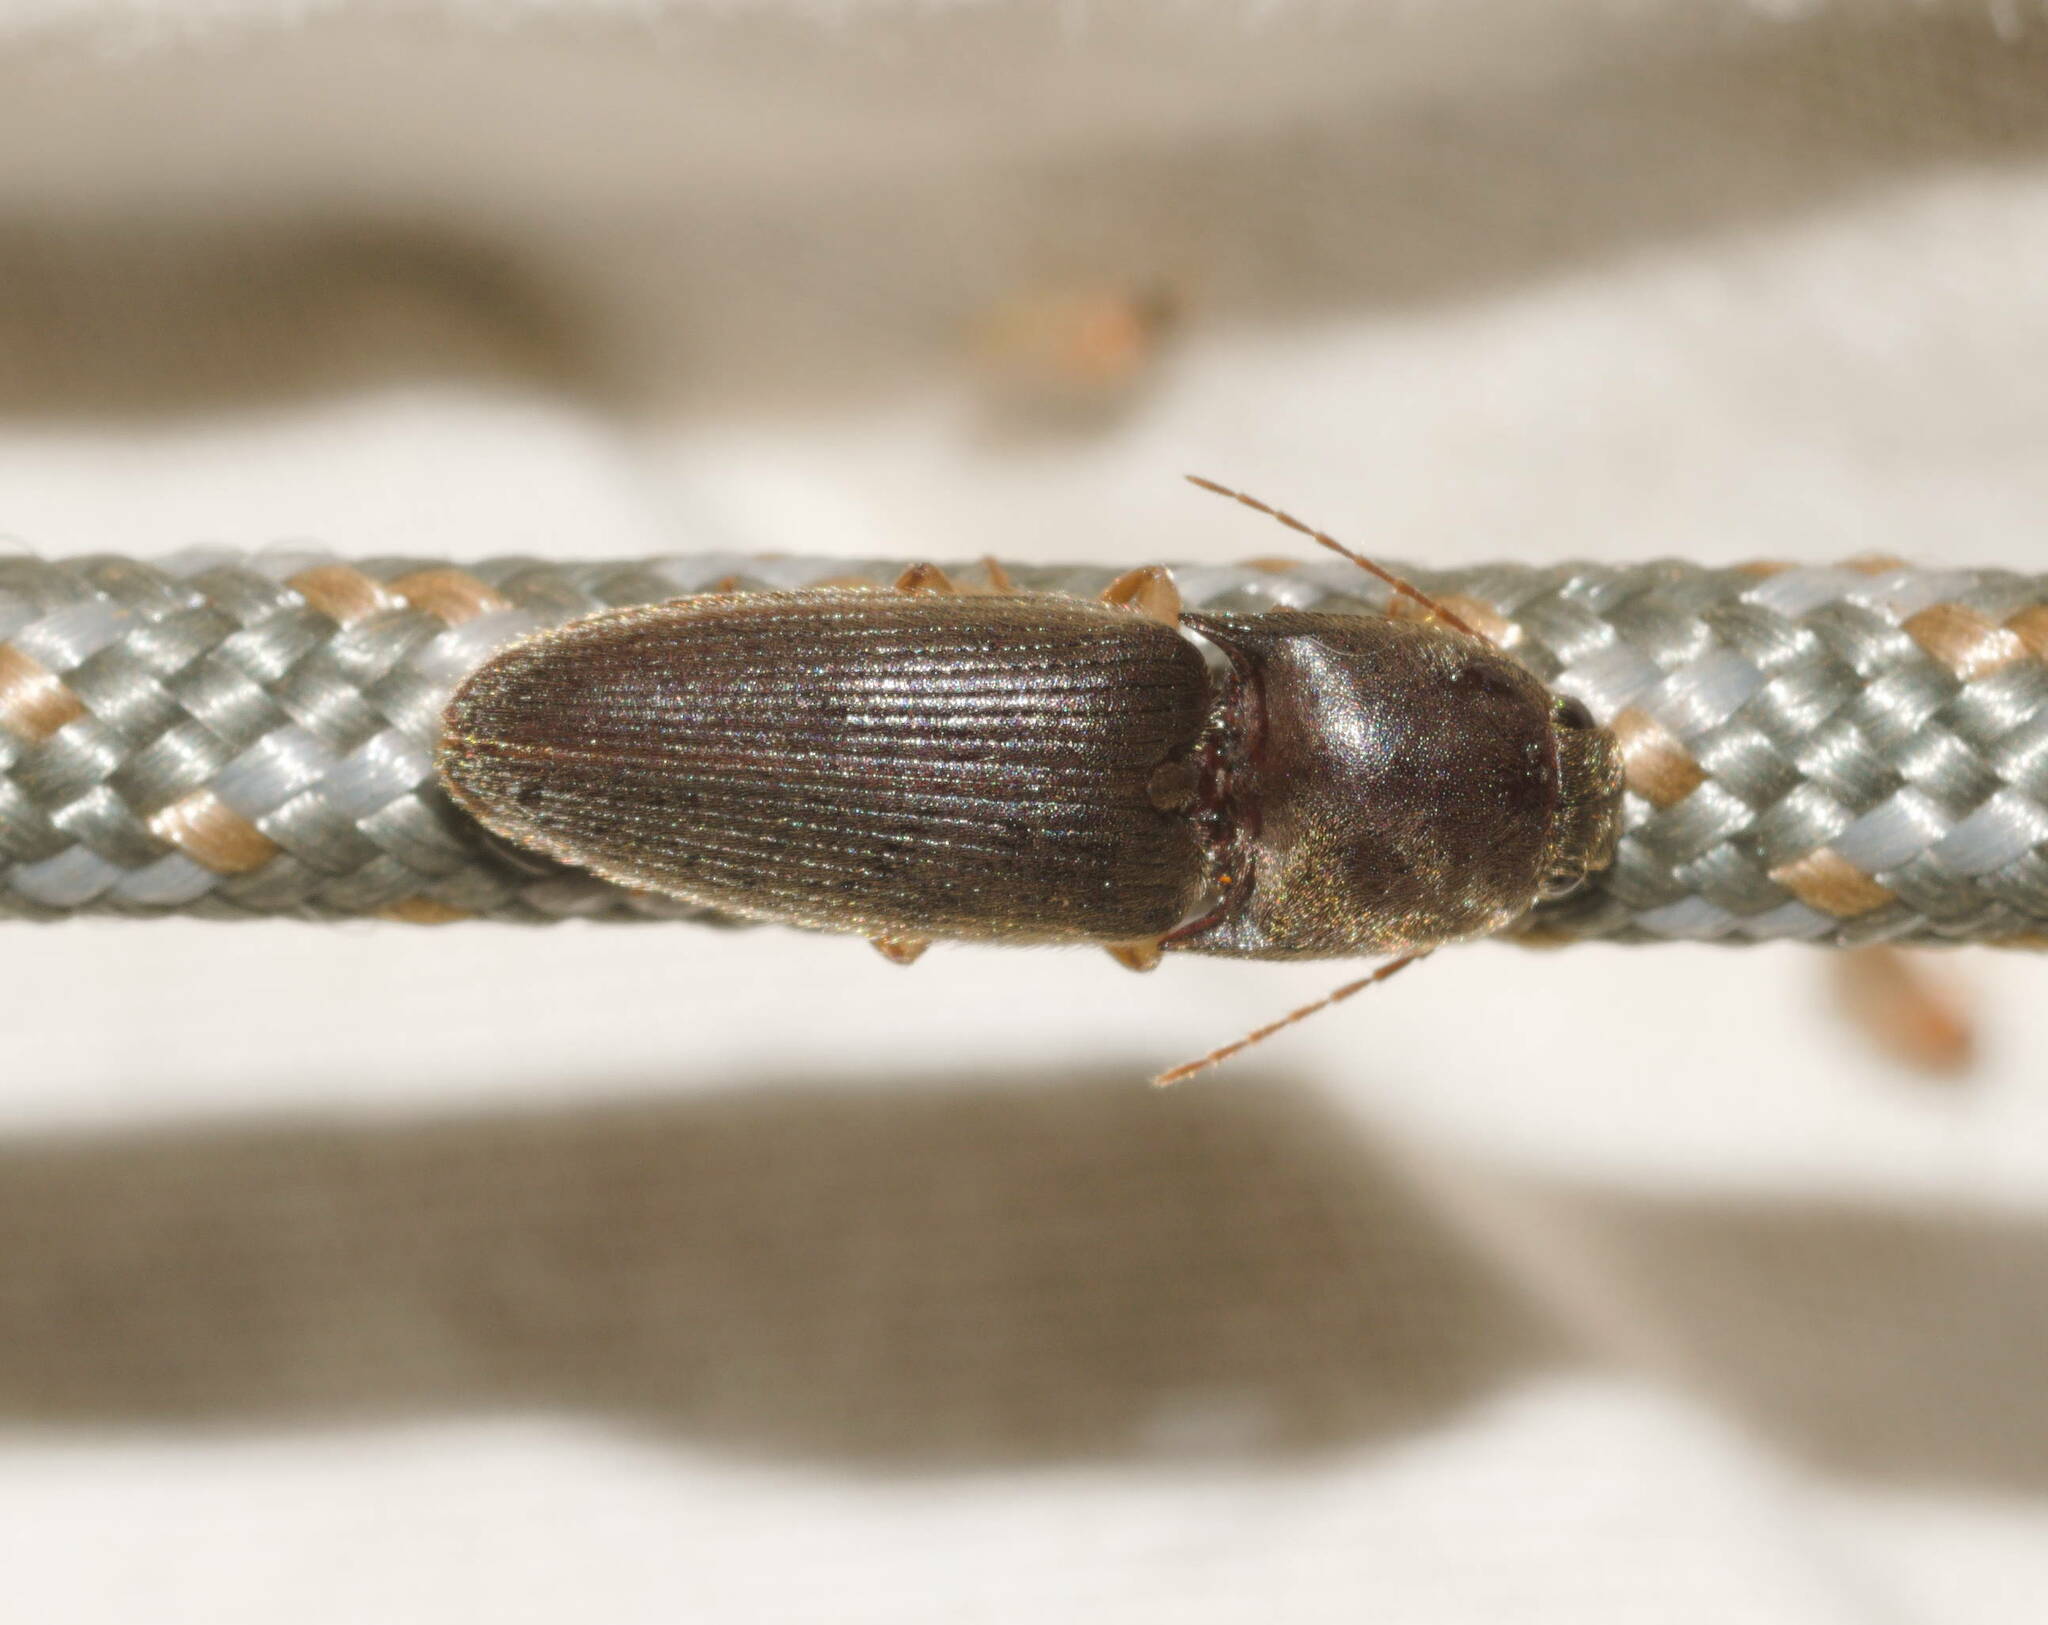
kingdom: Animalia
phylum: Arthropoda
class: Insecta
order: Coleoptera
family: Elateridae
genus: Conoderus
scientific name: Conoderus exsul
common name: Click beetle
